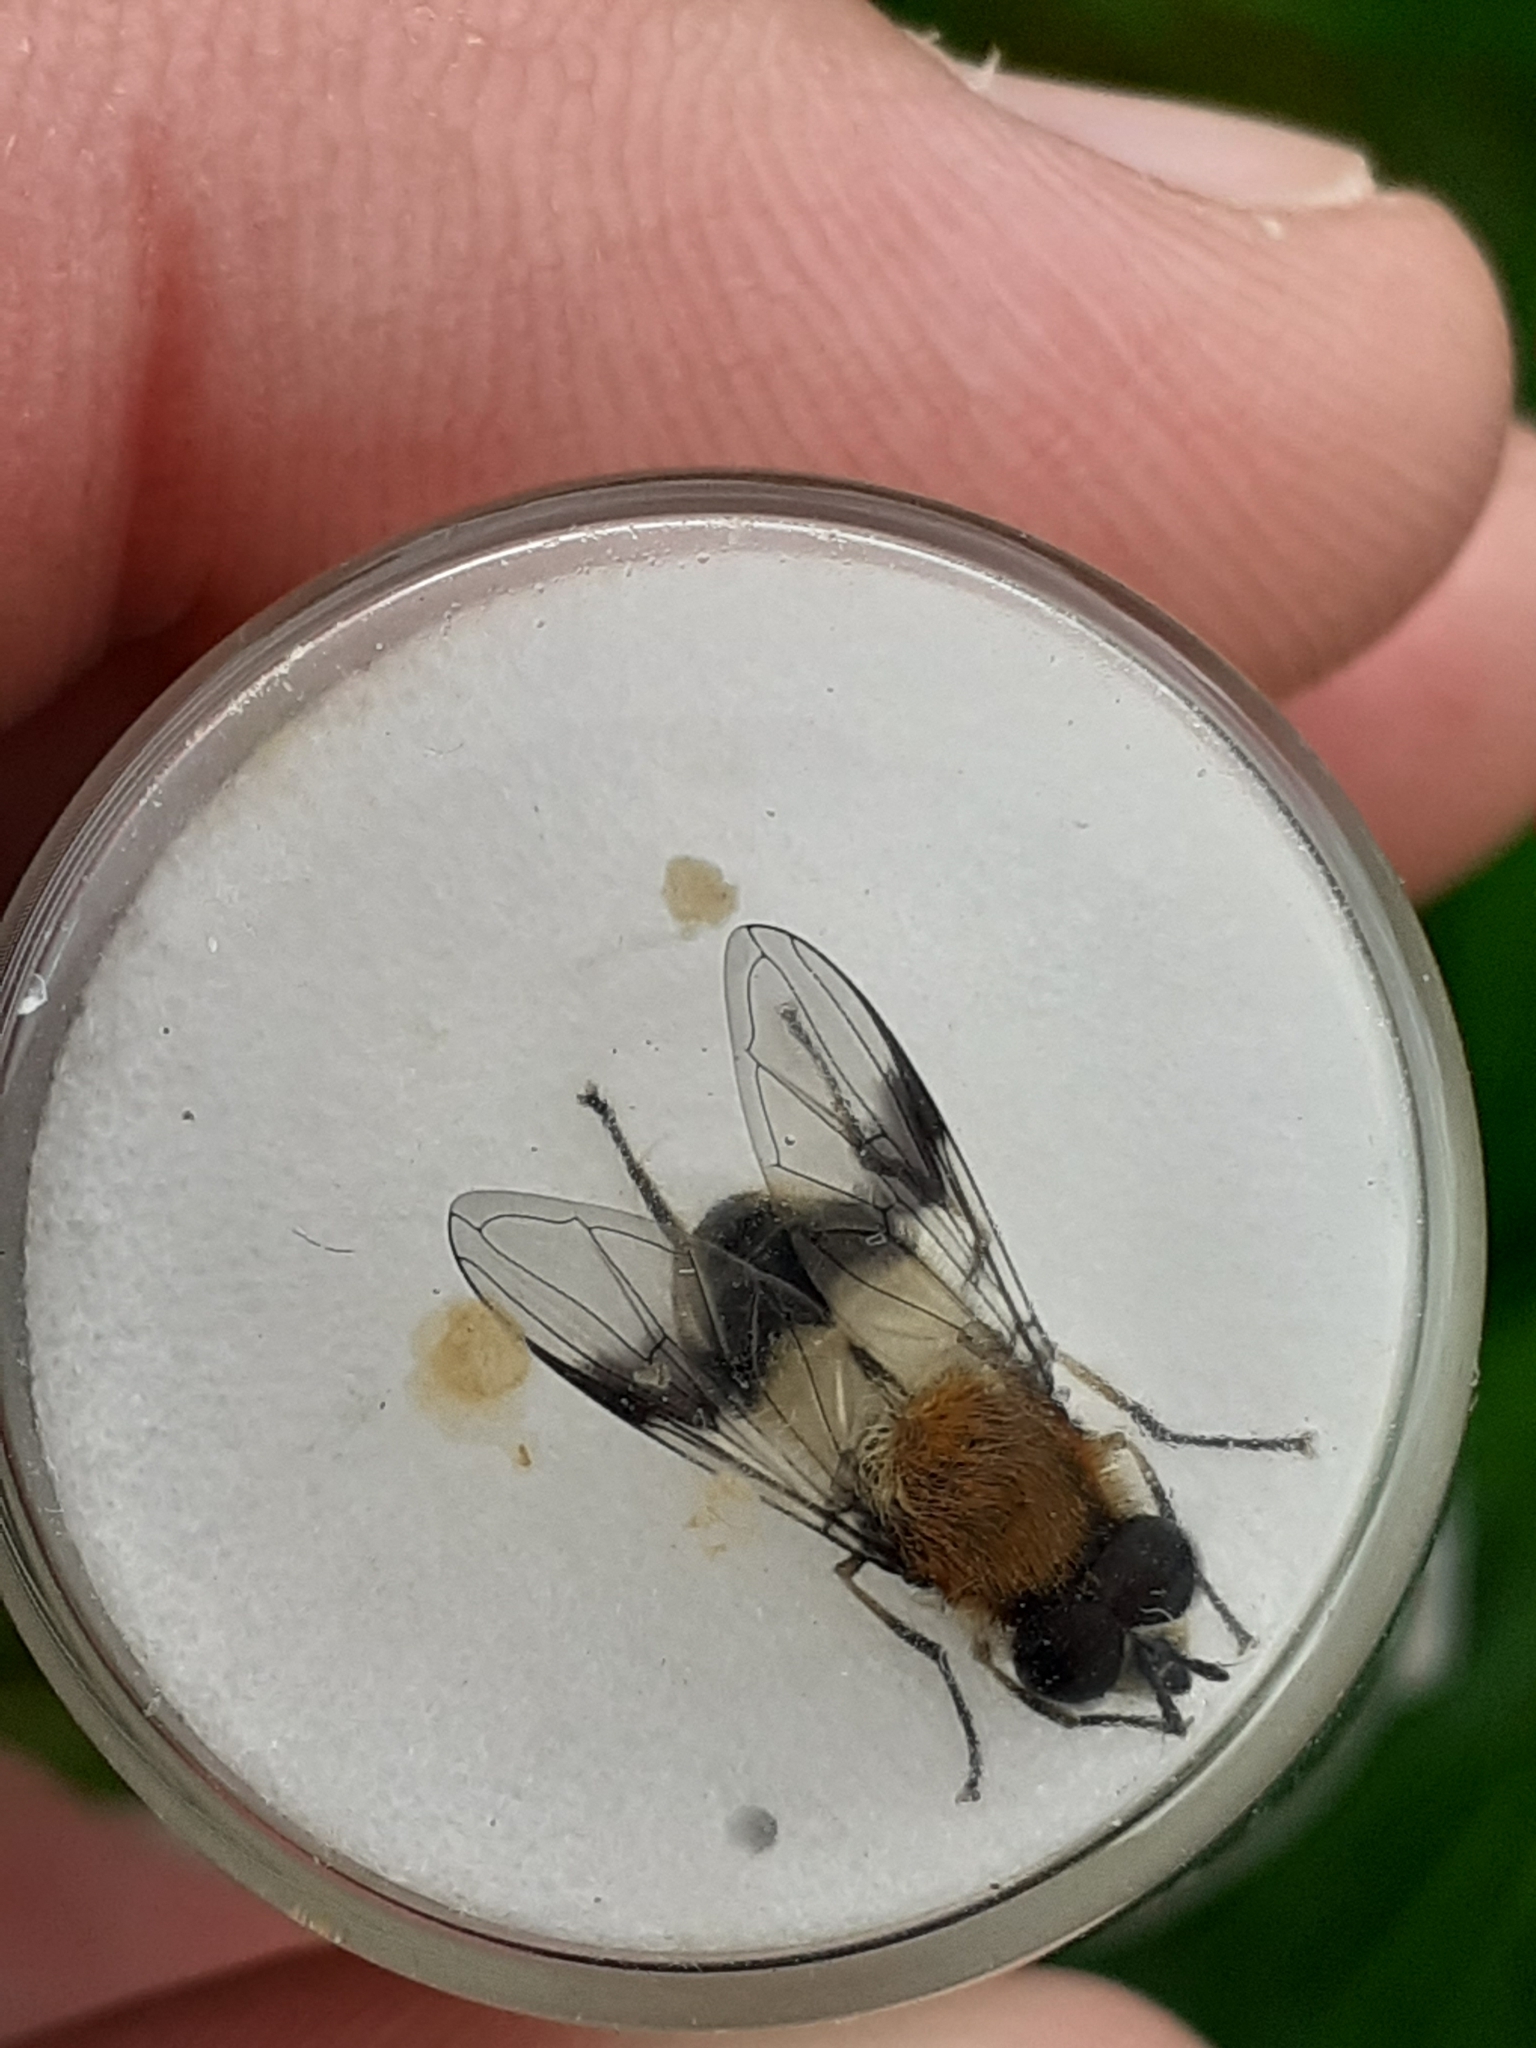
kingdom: Animalia
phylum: Arthropoda
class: Insecta
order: Diptera
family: Syrphidae
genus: Leucozona
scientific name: Leucozona lucorum
